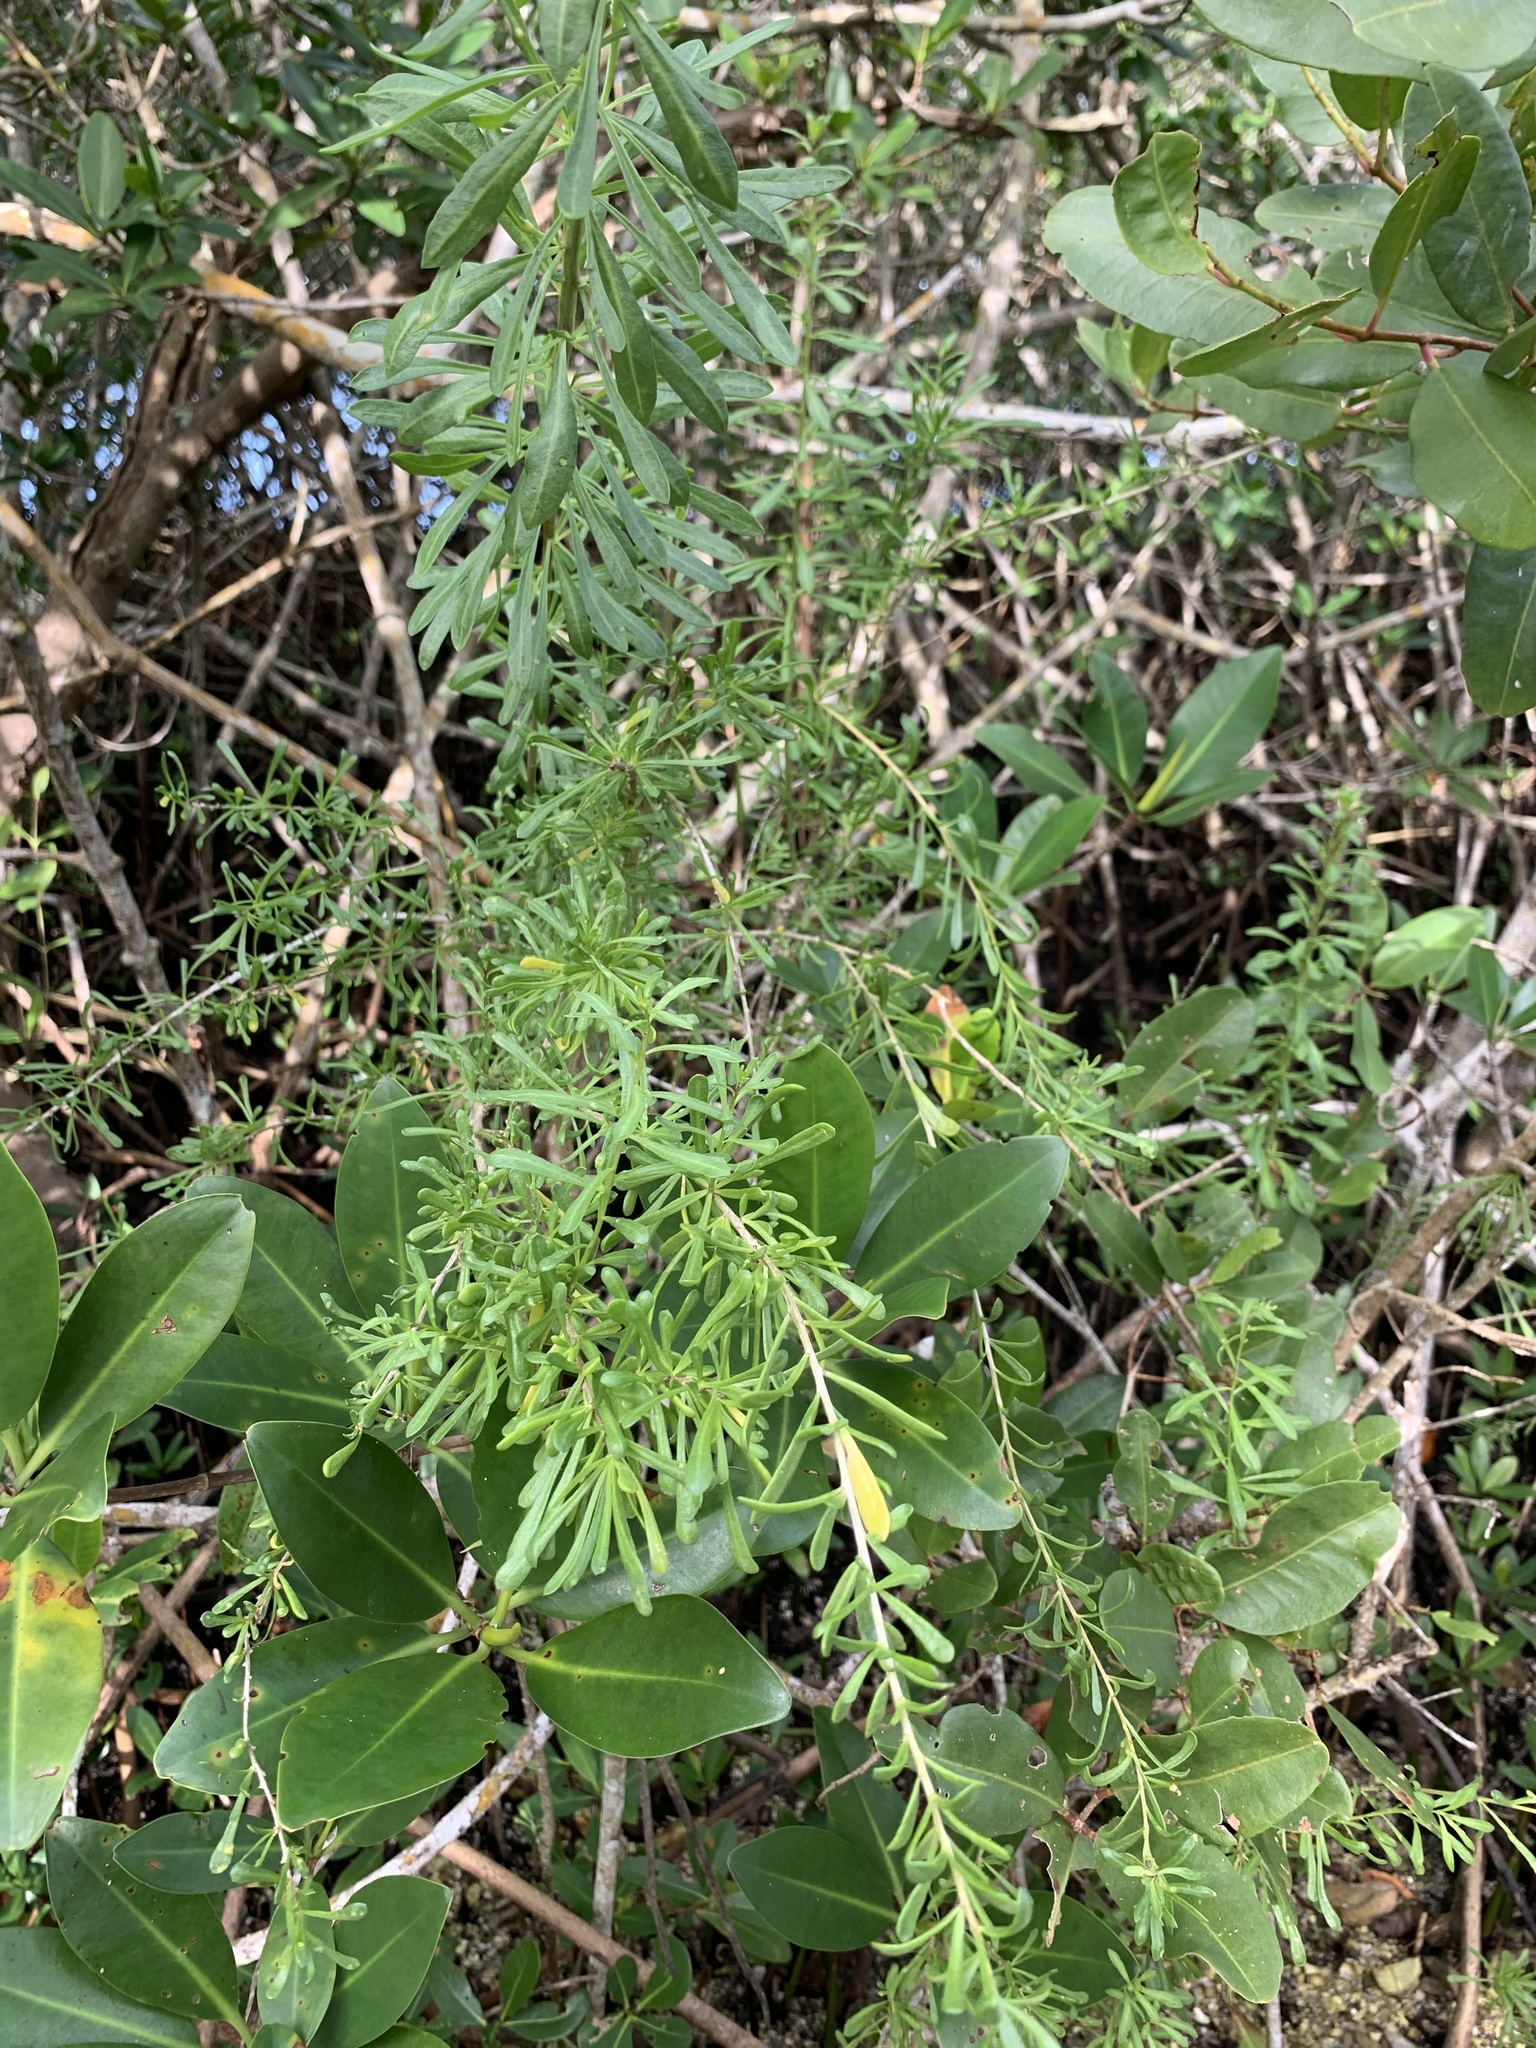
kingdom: Plantae
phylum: Tracheophyta
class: Magnoliopsida
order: Solanales
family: Solanaceae
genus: Lycium
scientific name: Lycium carolinianum
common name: Christmasberry
